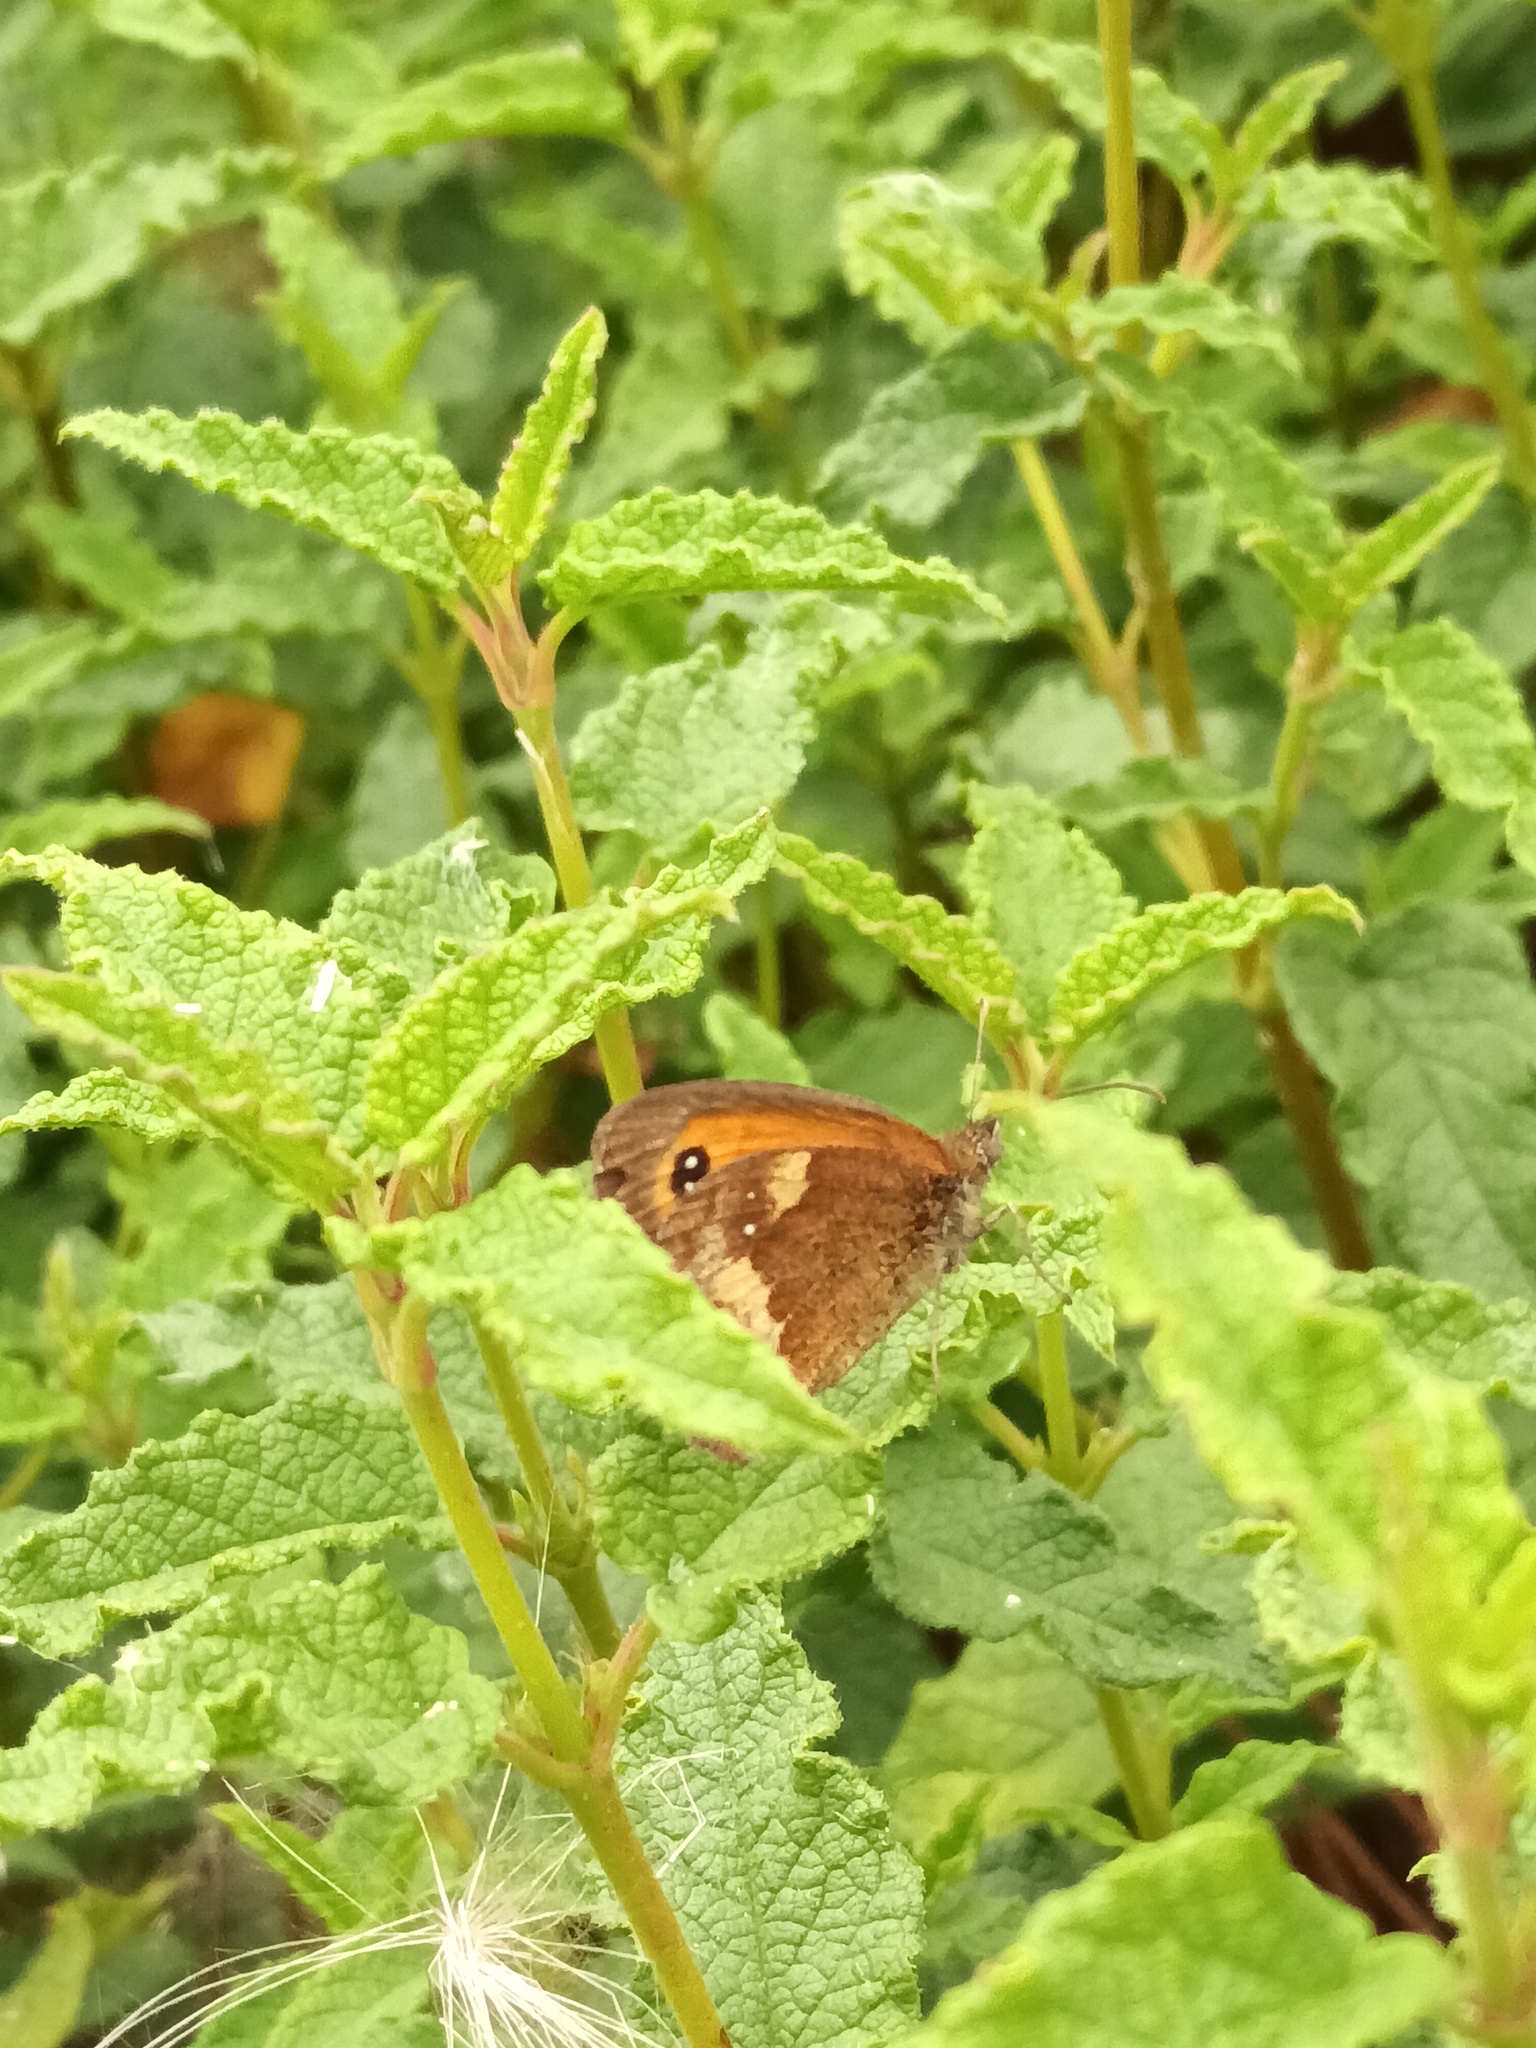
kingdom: Animalia
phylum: Arthropoda
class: Insecta
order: Lepidoptera
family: Nymphalidae
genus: Pyronia
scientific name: Pyronia tithonus
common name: Gatekeeper
